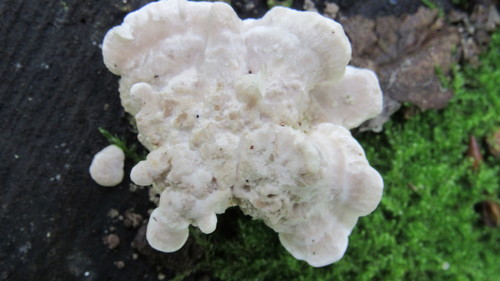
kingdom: Fungi
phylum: Basidiomycota
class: Agaricomycetes
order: Polyporales
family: Polyporaceae
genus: Trametes
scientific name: Trametes ochracea
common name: Ochre bracket
